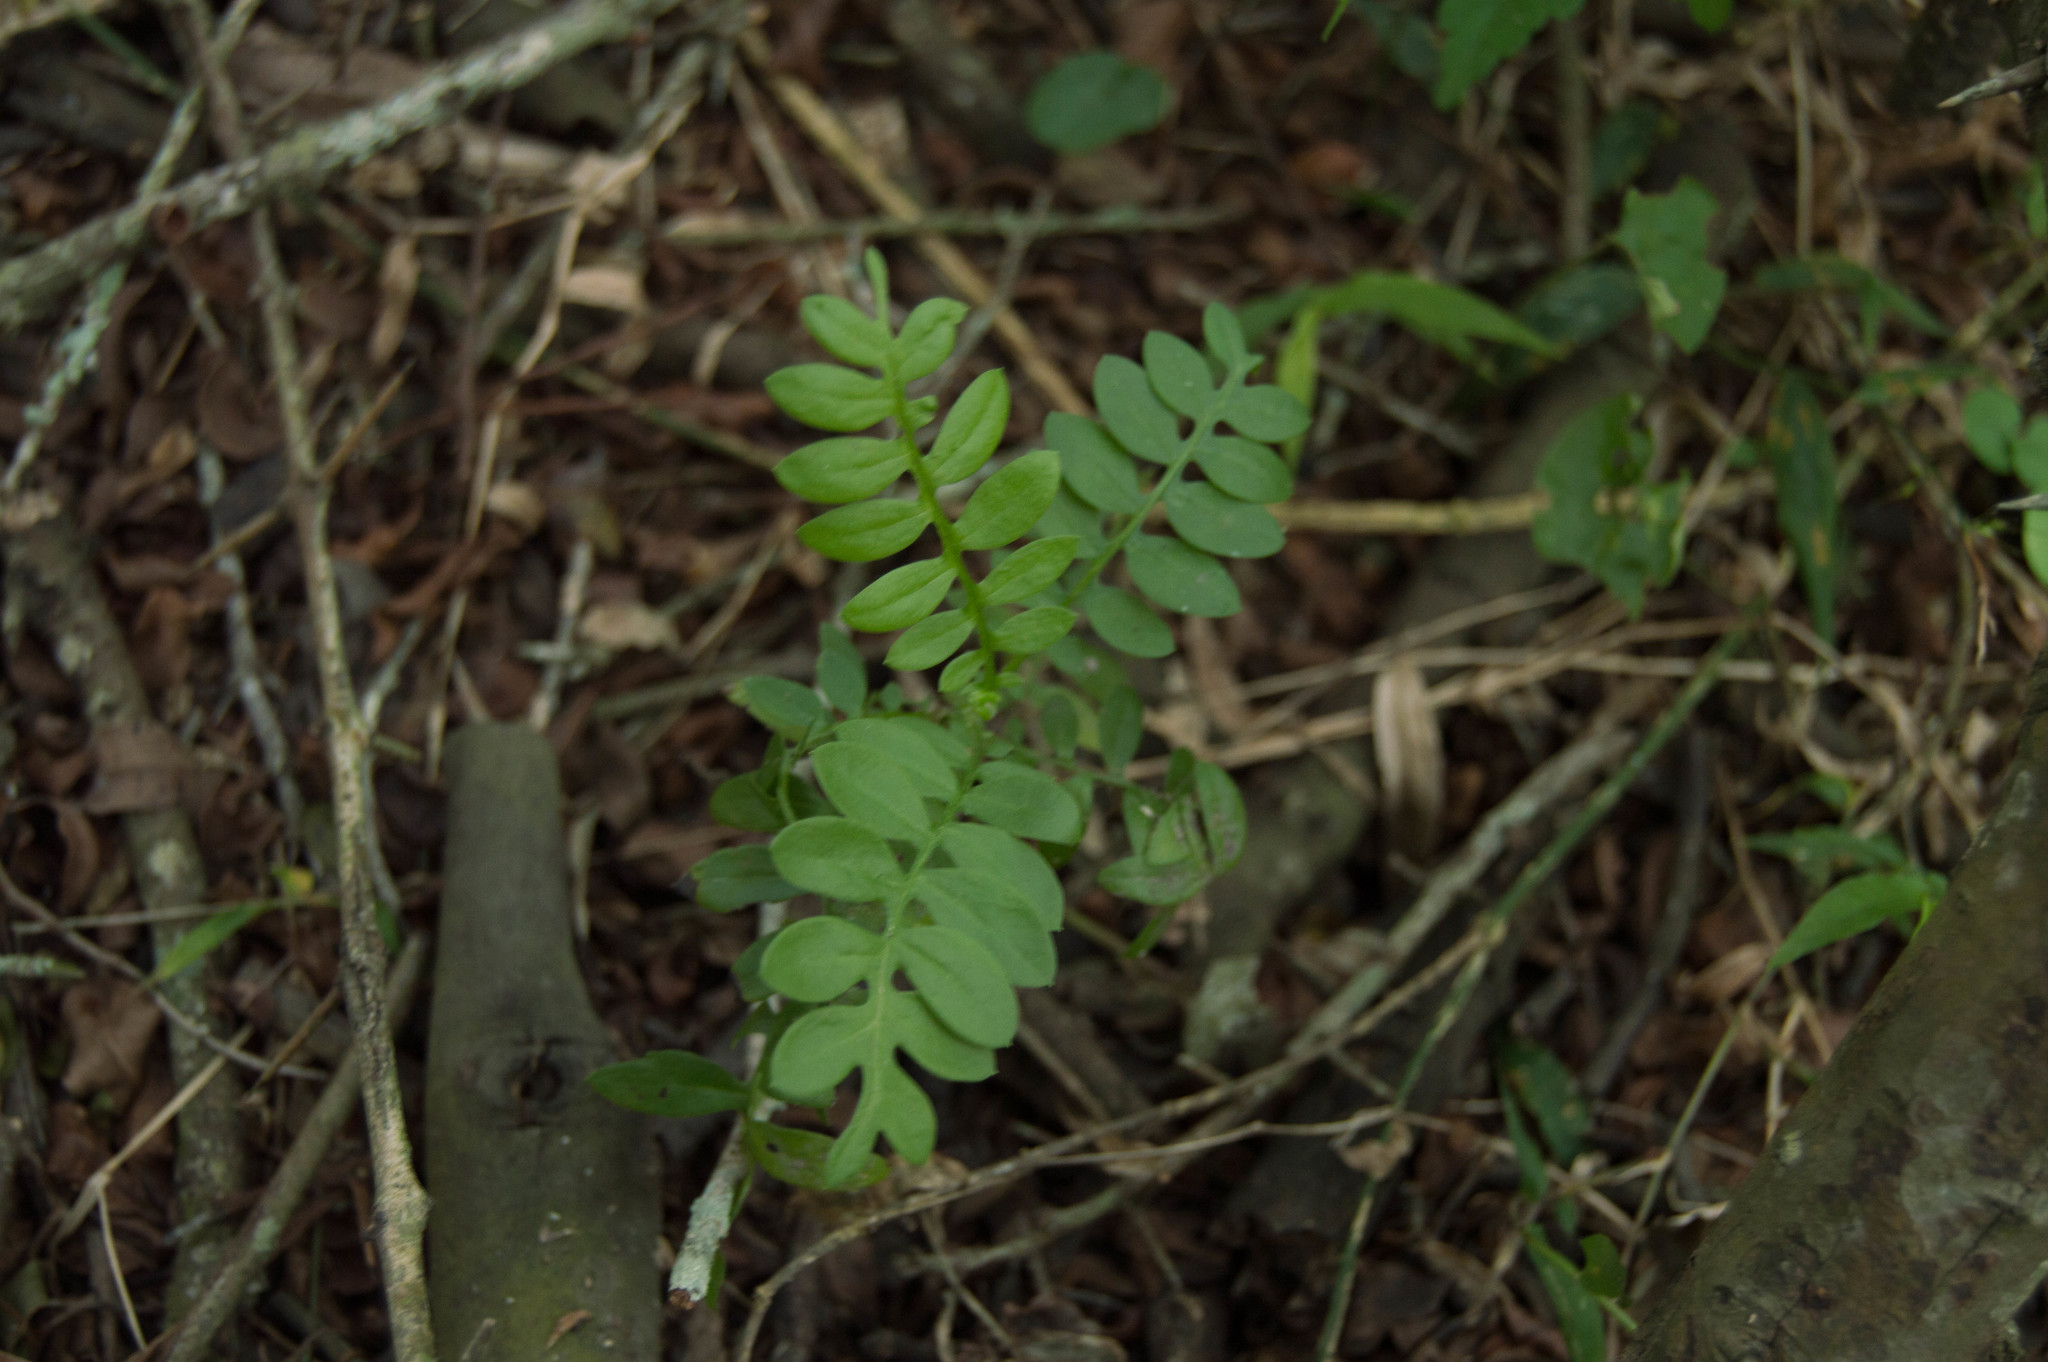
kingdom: Plantae
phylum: Tracheophyta
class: Magnoliopsida
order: Asterales
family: Asteraceae
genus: Mutisia
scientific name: Mutisia coccinea
